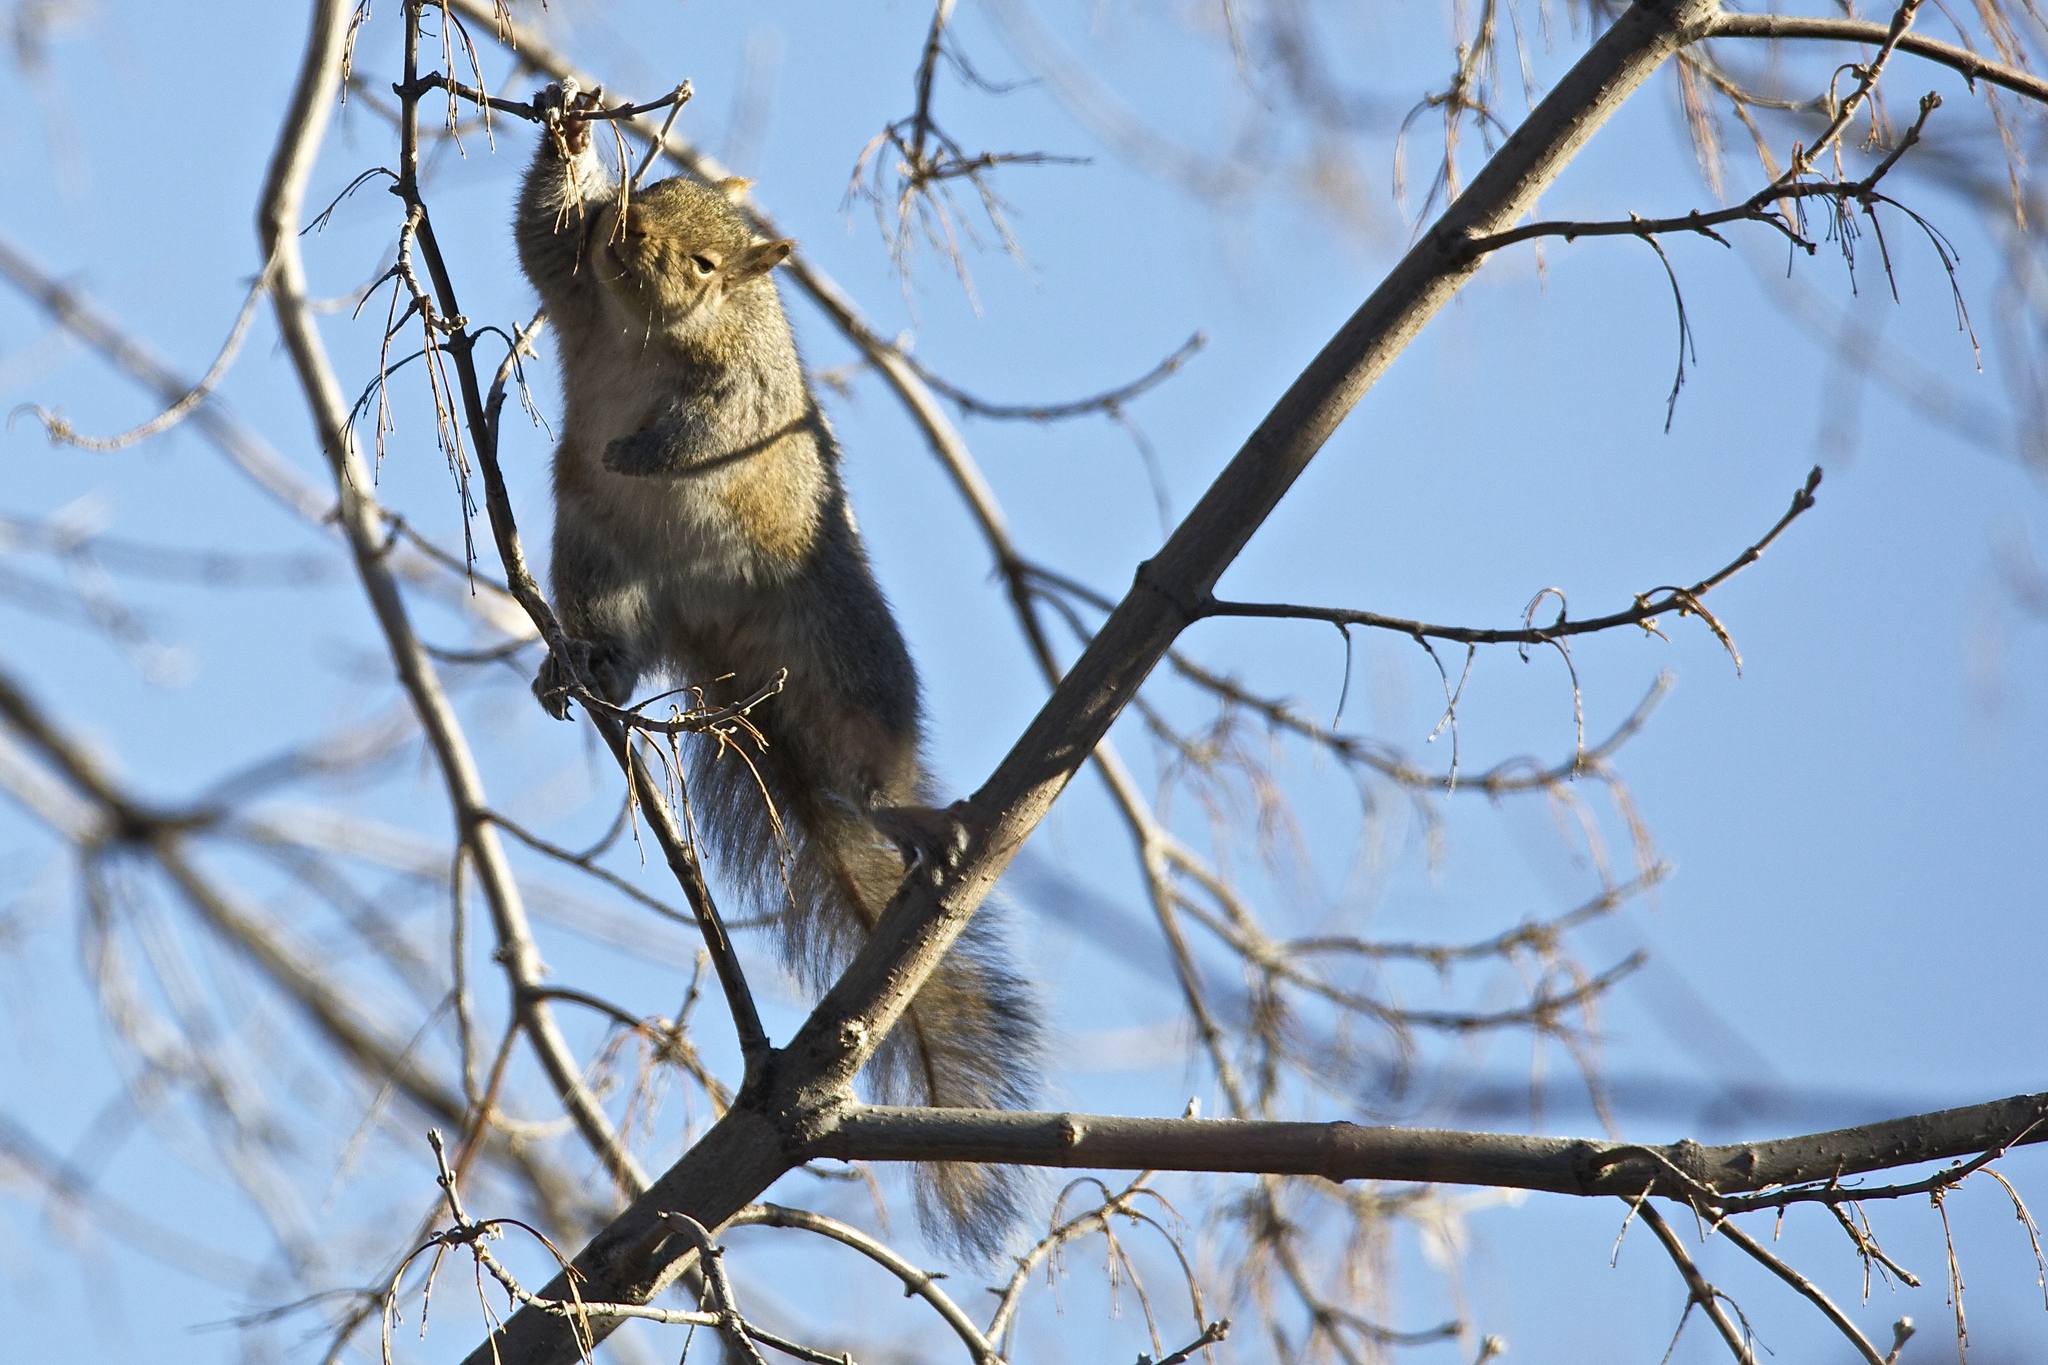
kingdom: Animalia
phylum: Chordata
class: Mammalia
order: Rodentia
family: Sciuridae
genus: Sciurus
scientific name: Sciurus carolinensis
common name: Eastern gray squirrel
